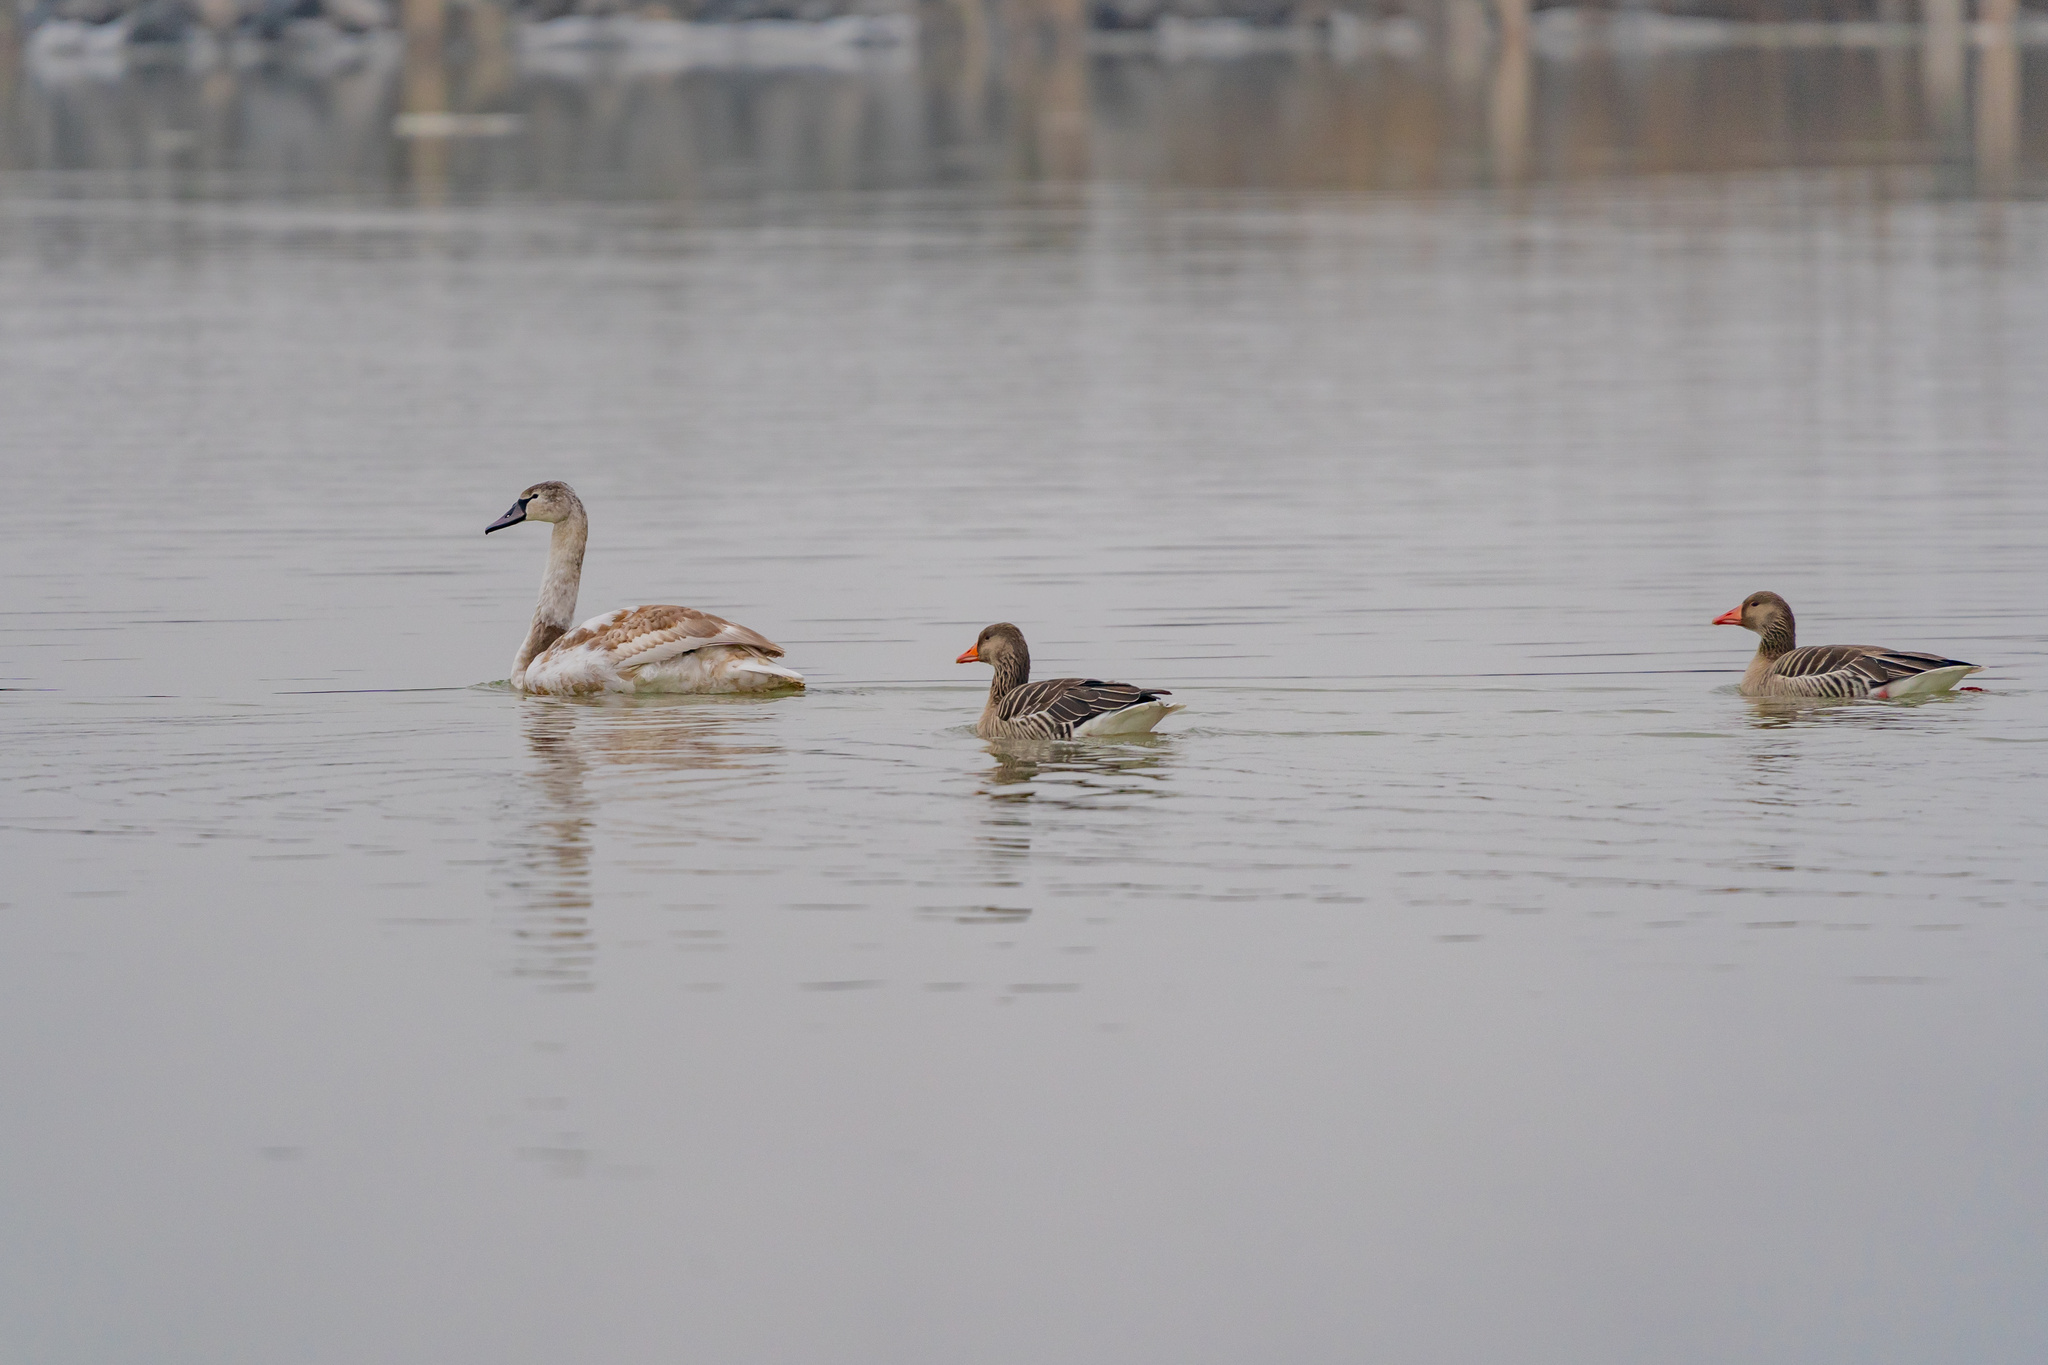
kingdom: Animalia
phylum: Chordata
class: Aves
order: Anseriformes
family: Anatidae
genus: Cygnus
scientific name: Cygnus olor
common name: Mute swan
